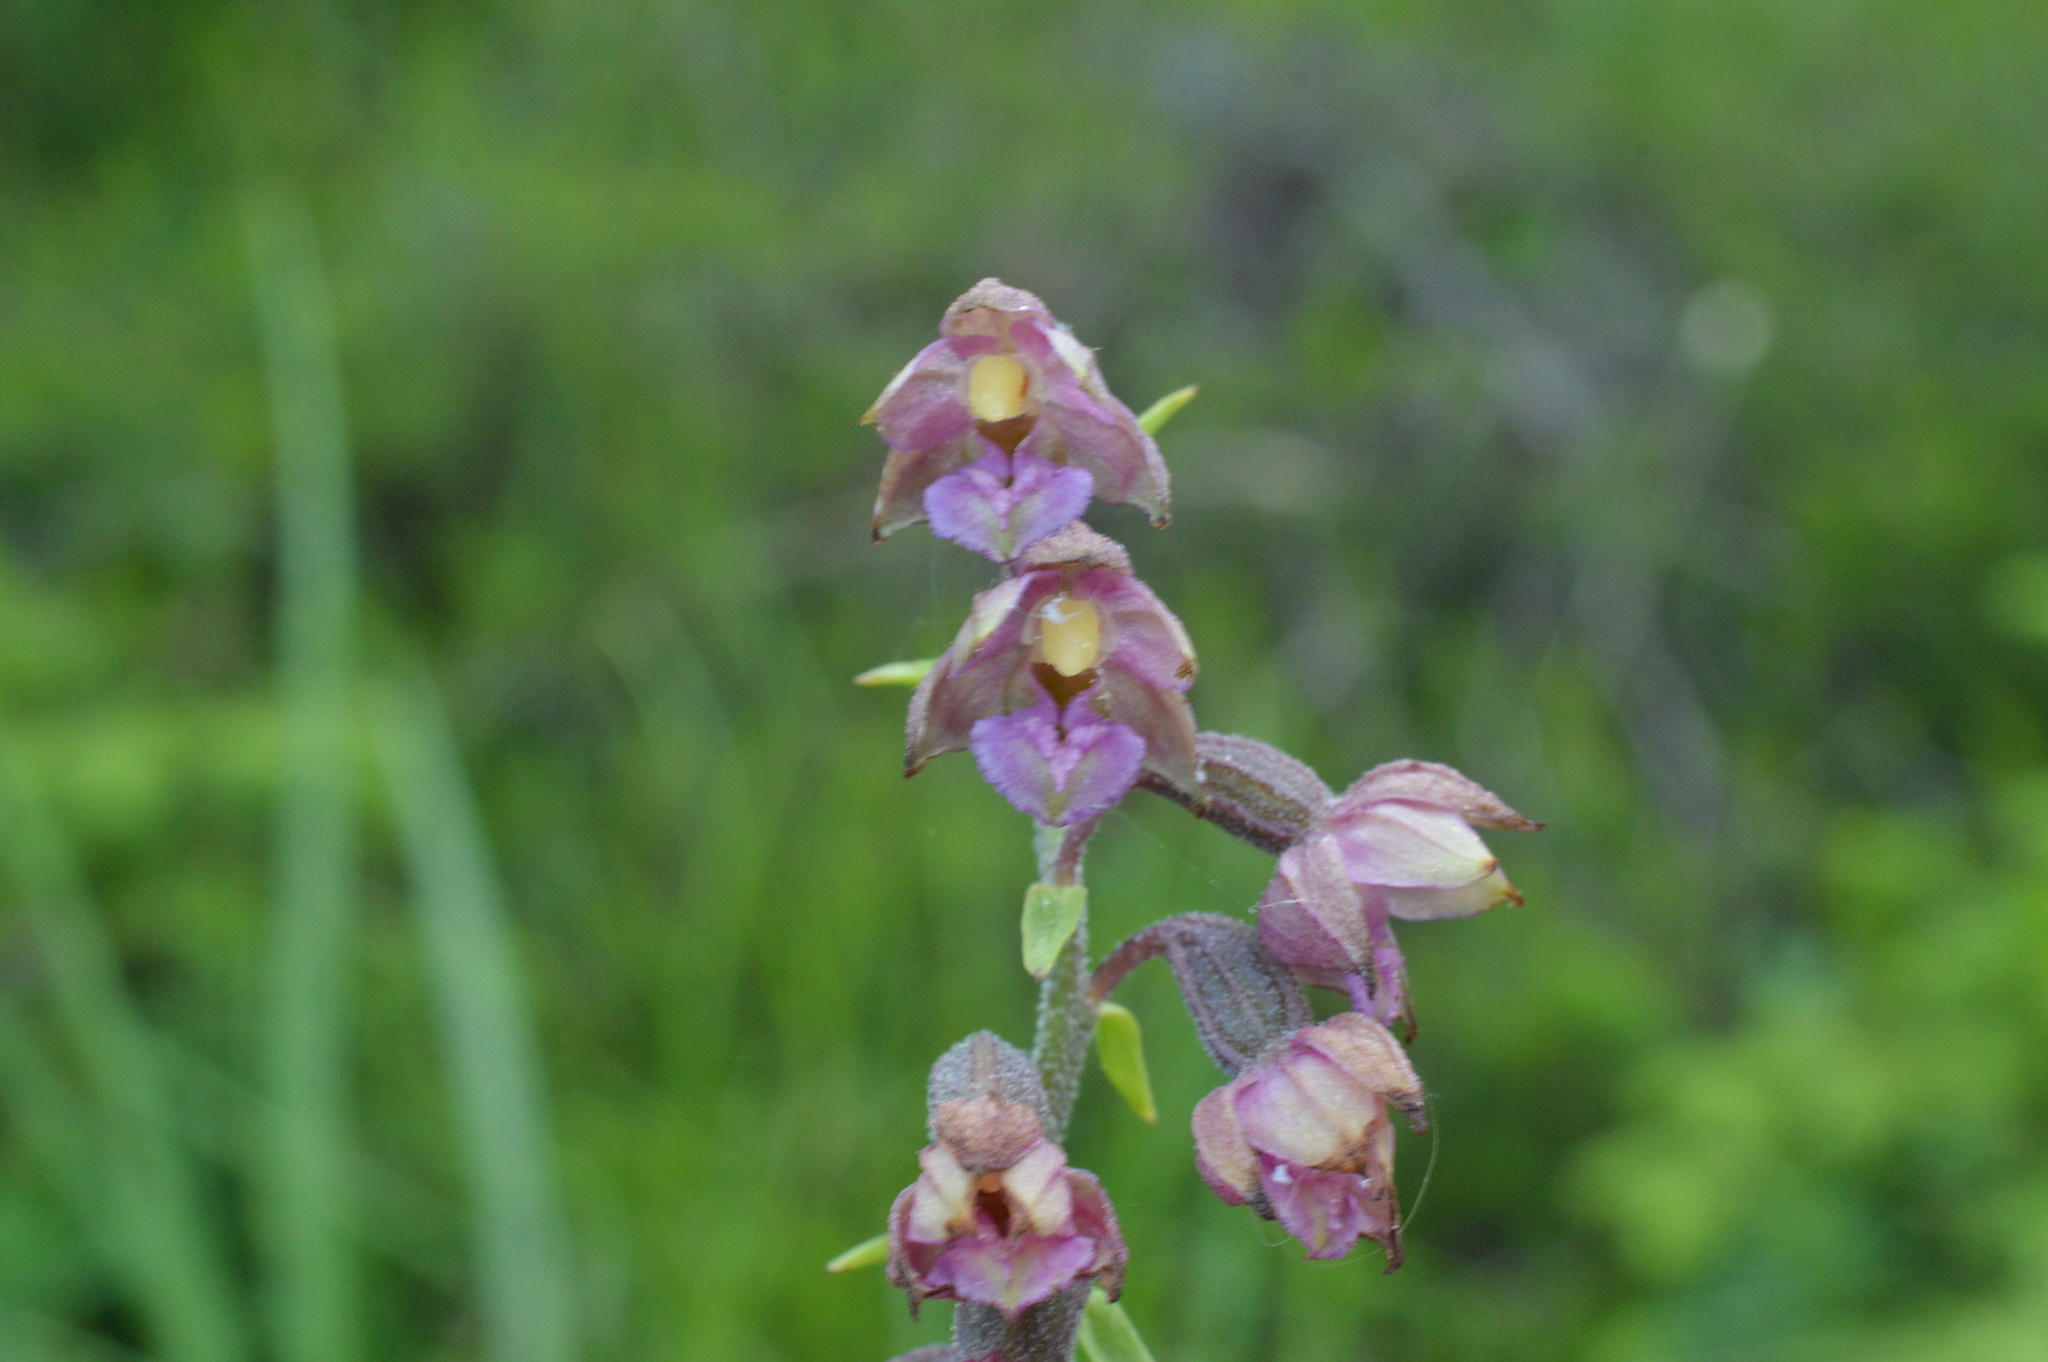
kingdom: Plantae
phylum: Tracheophyta
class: Liliopsida
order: Asparagales
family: Orchidaceae
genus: Epipactis
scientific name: Epipactis atrorubens
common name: Dark-red helleborine
